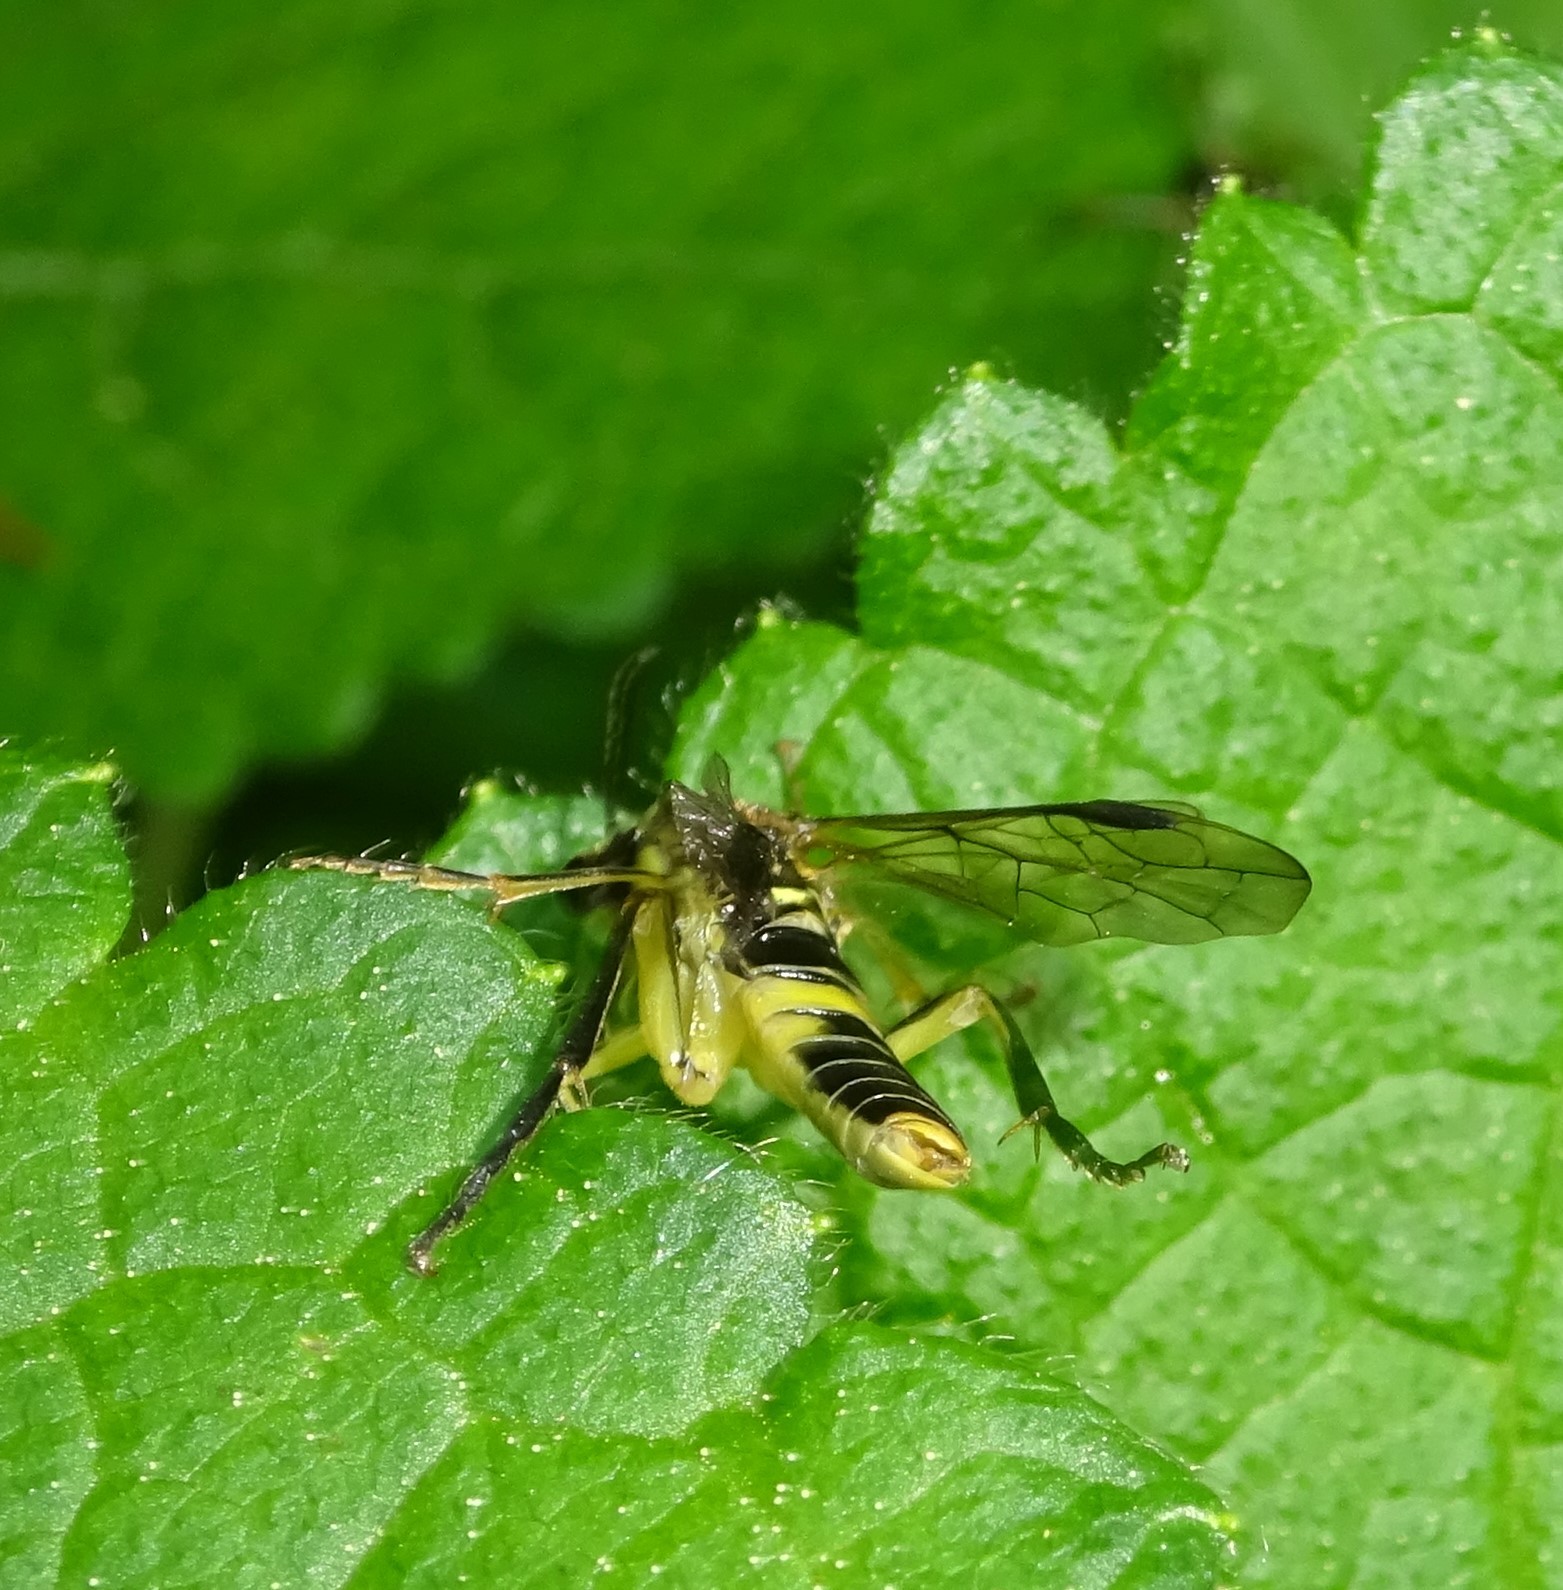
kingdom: Animalia
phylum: Arthropoda
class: Insecta
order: Hymenoptera
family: Tenthredinidae
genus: Tenthredo
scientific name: Tenthredo temula
